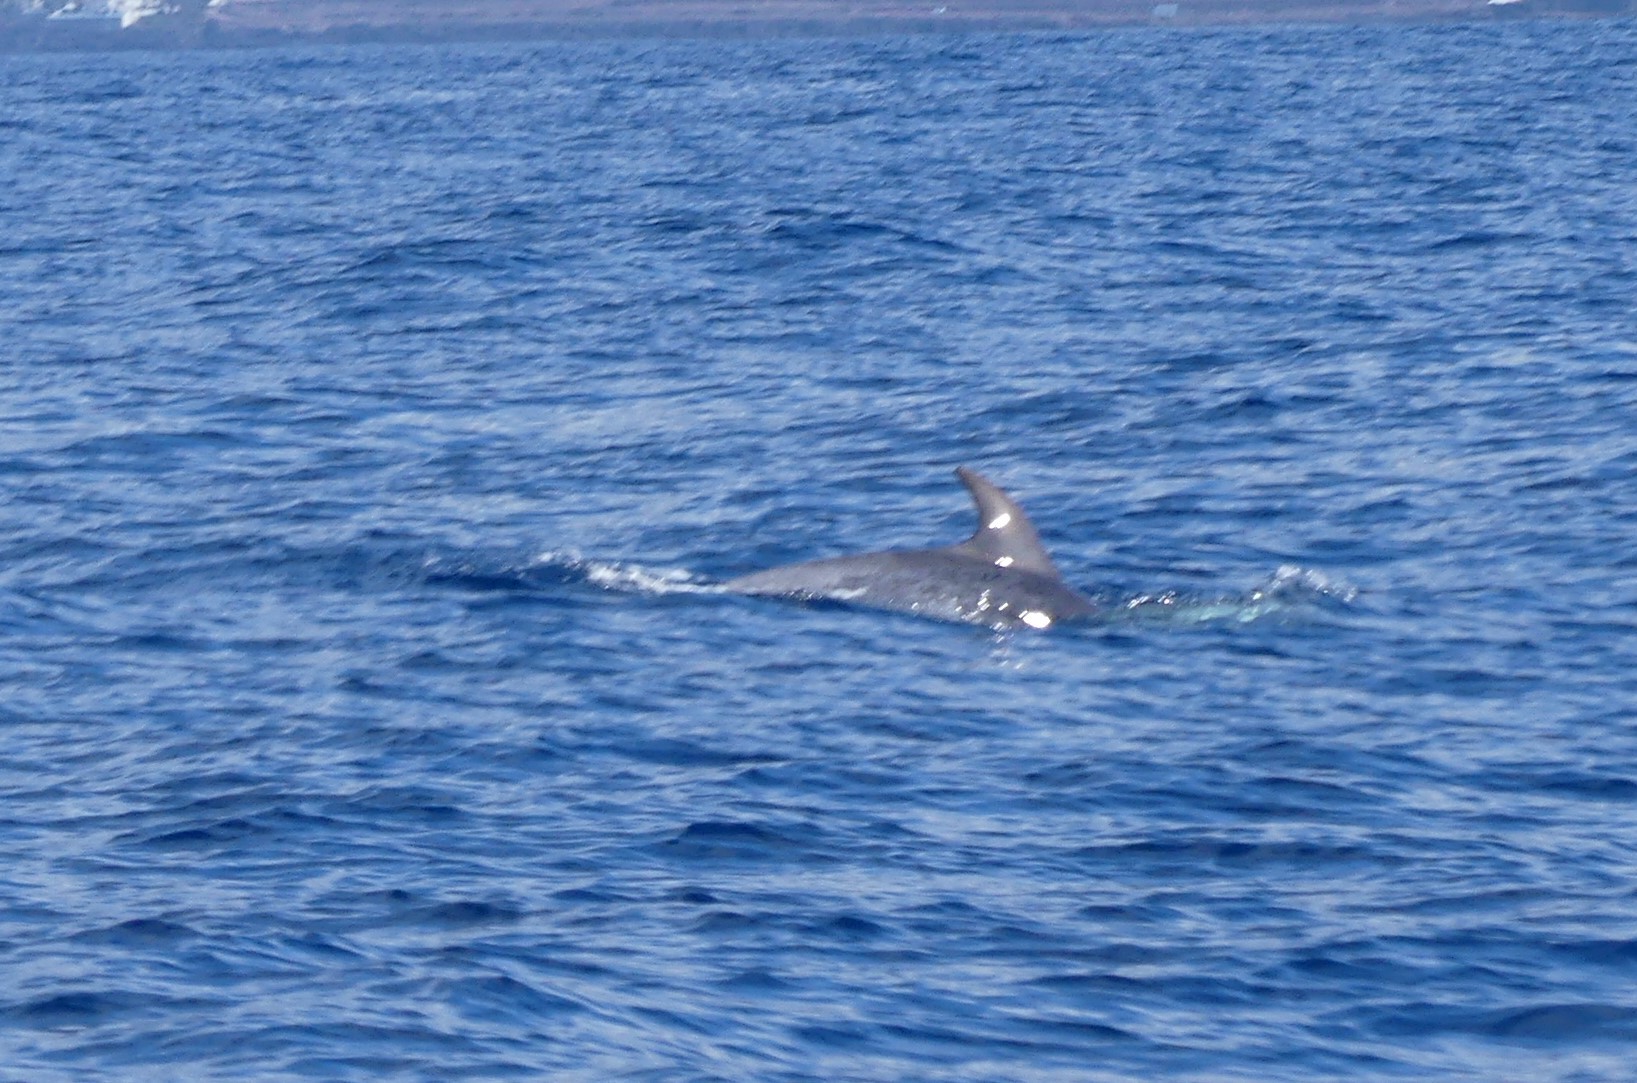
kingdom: Animalia
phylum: Chordata
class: Mammalia
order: Cetacea
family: Delphinidae
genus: Tursiops
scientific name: Tursiops truncatus
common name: Bottlenose dolphin
